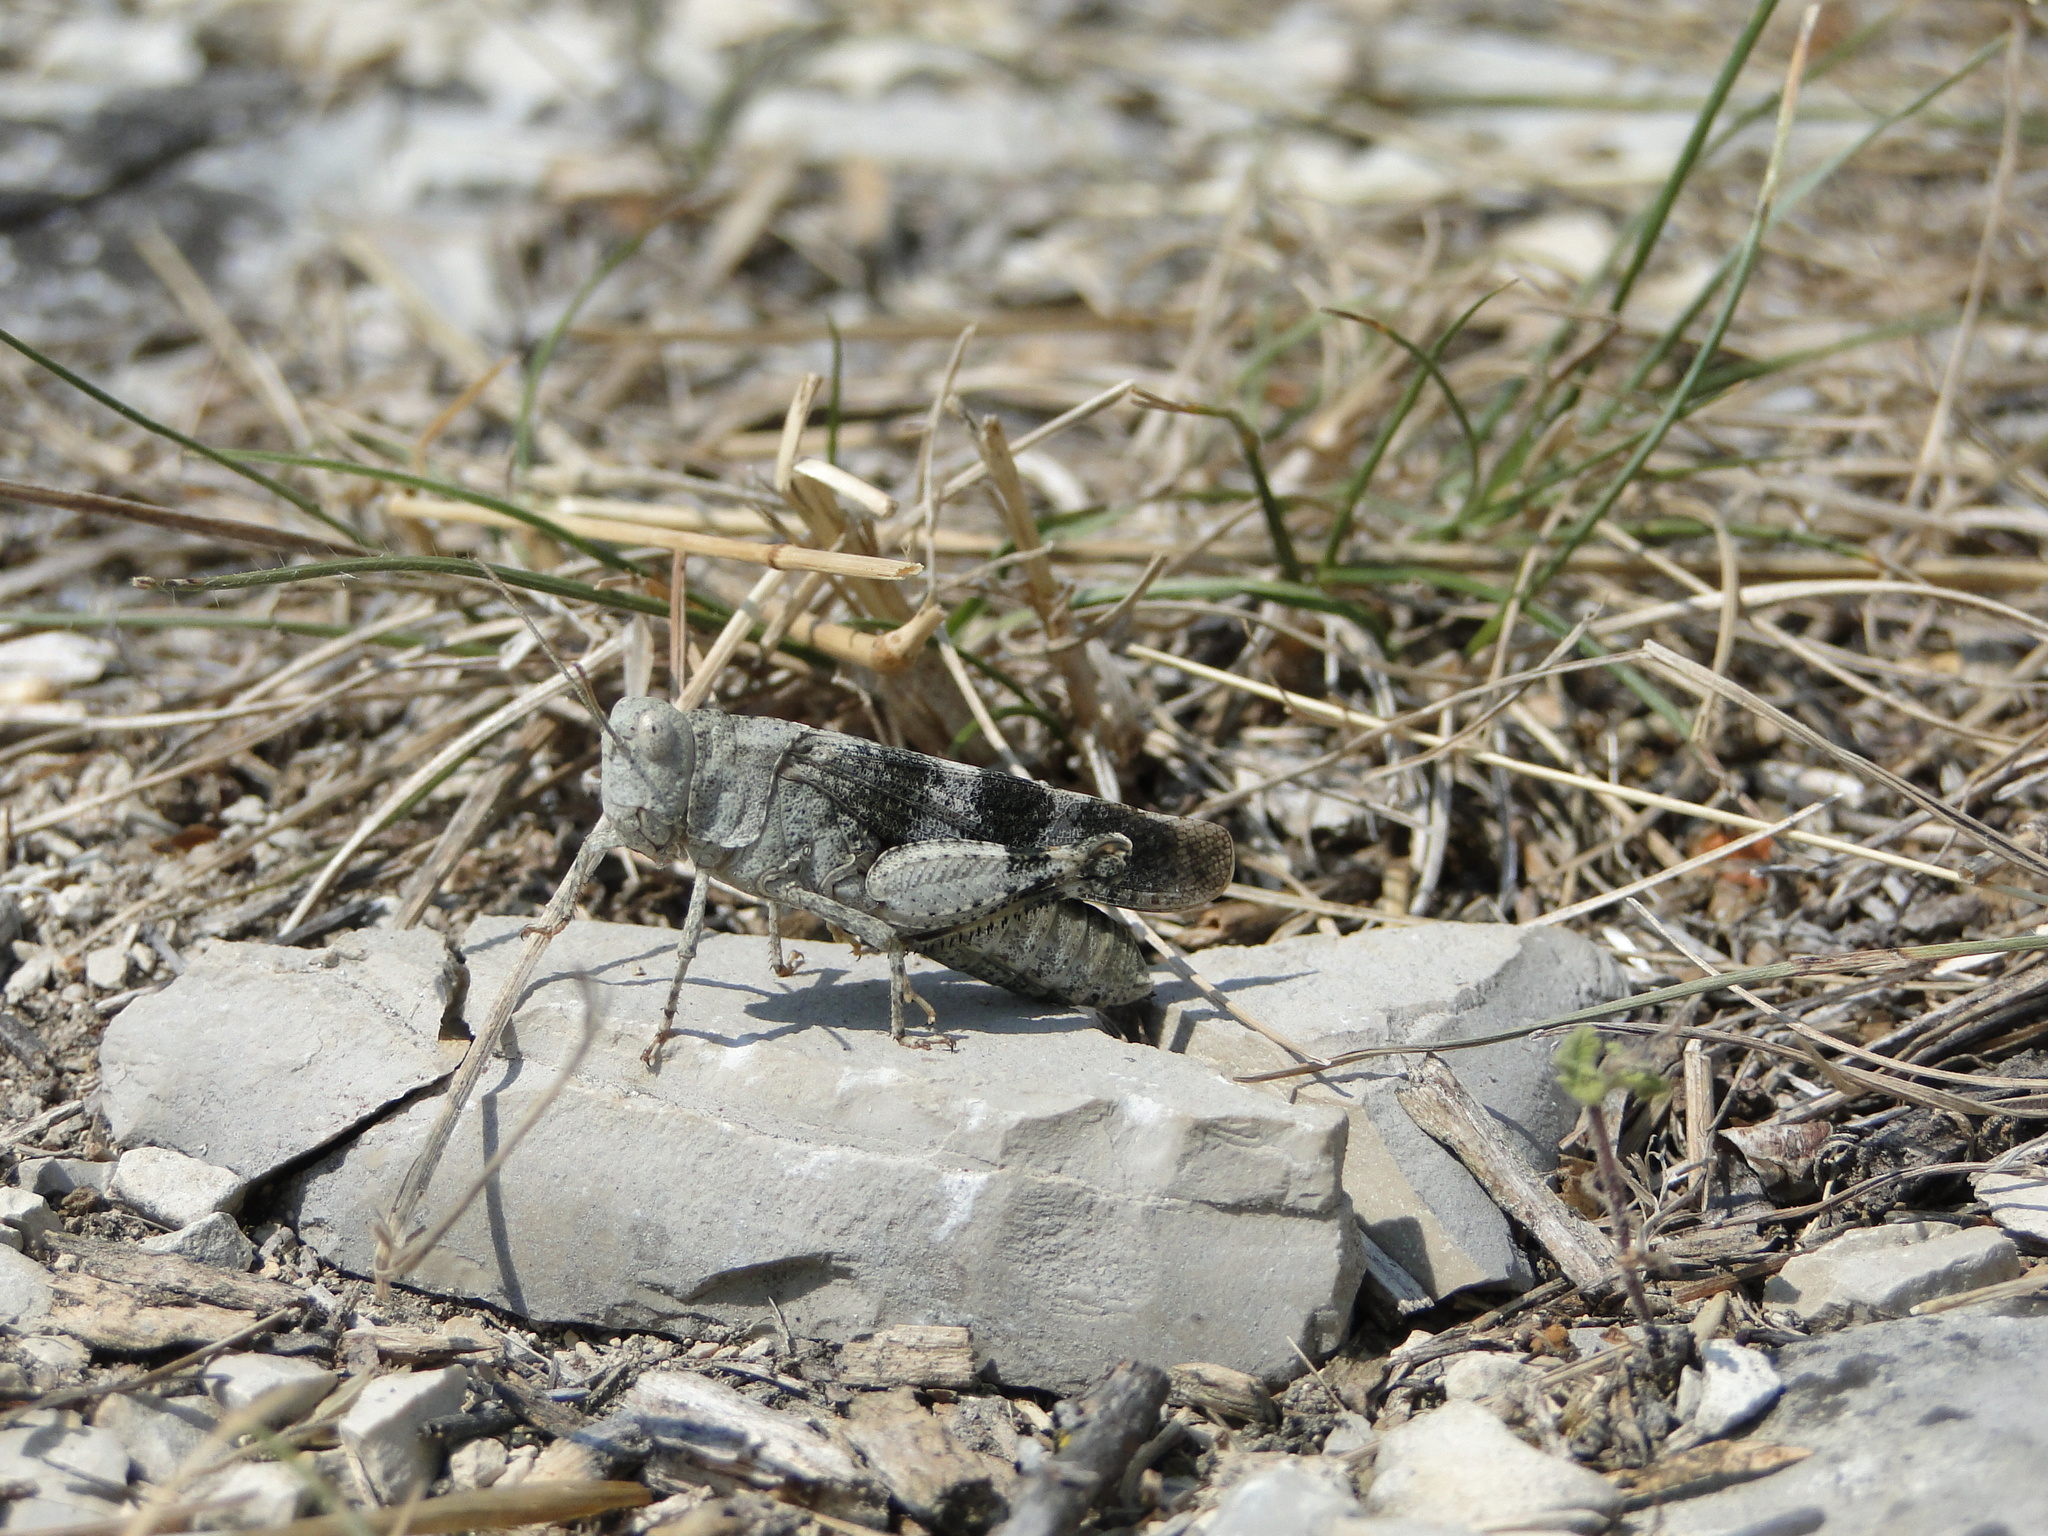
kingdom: Animalia
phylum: Arthropoda
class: Insecta
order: Orthoptera
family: Acrididae
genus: Oedipoda
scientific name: Oedipoda germanica
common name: Red band-winged grasshopper
